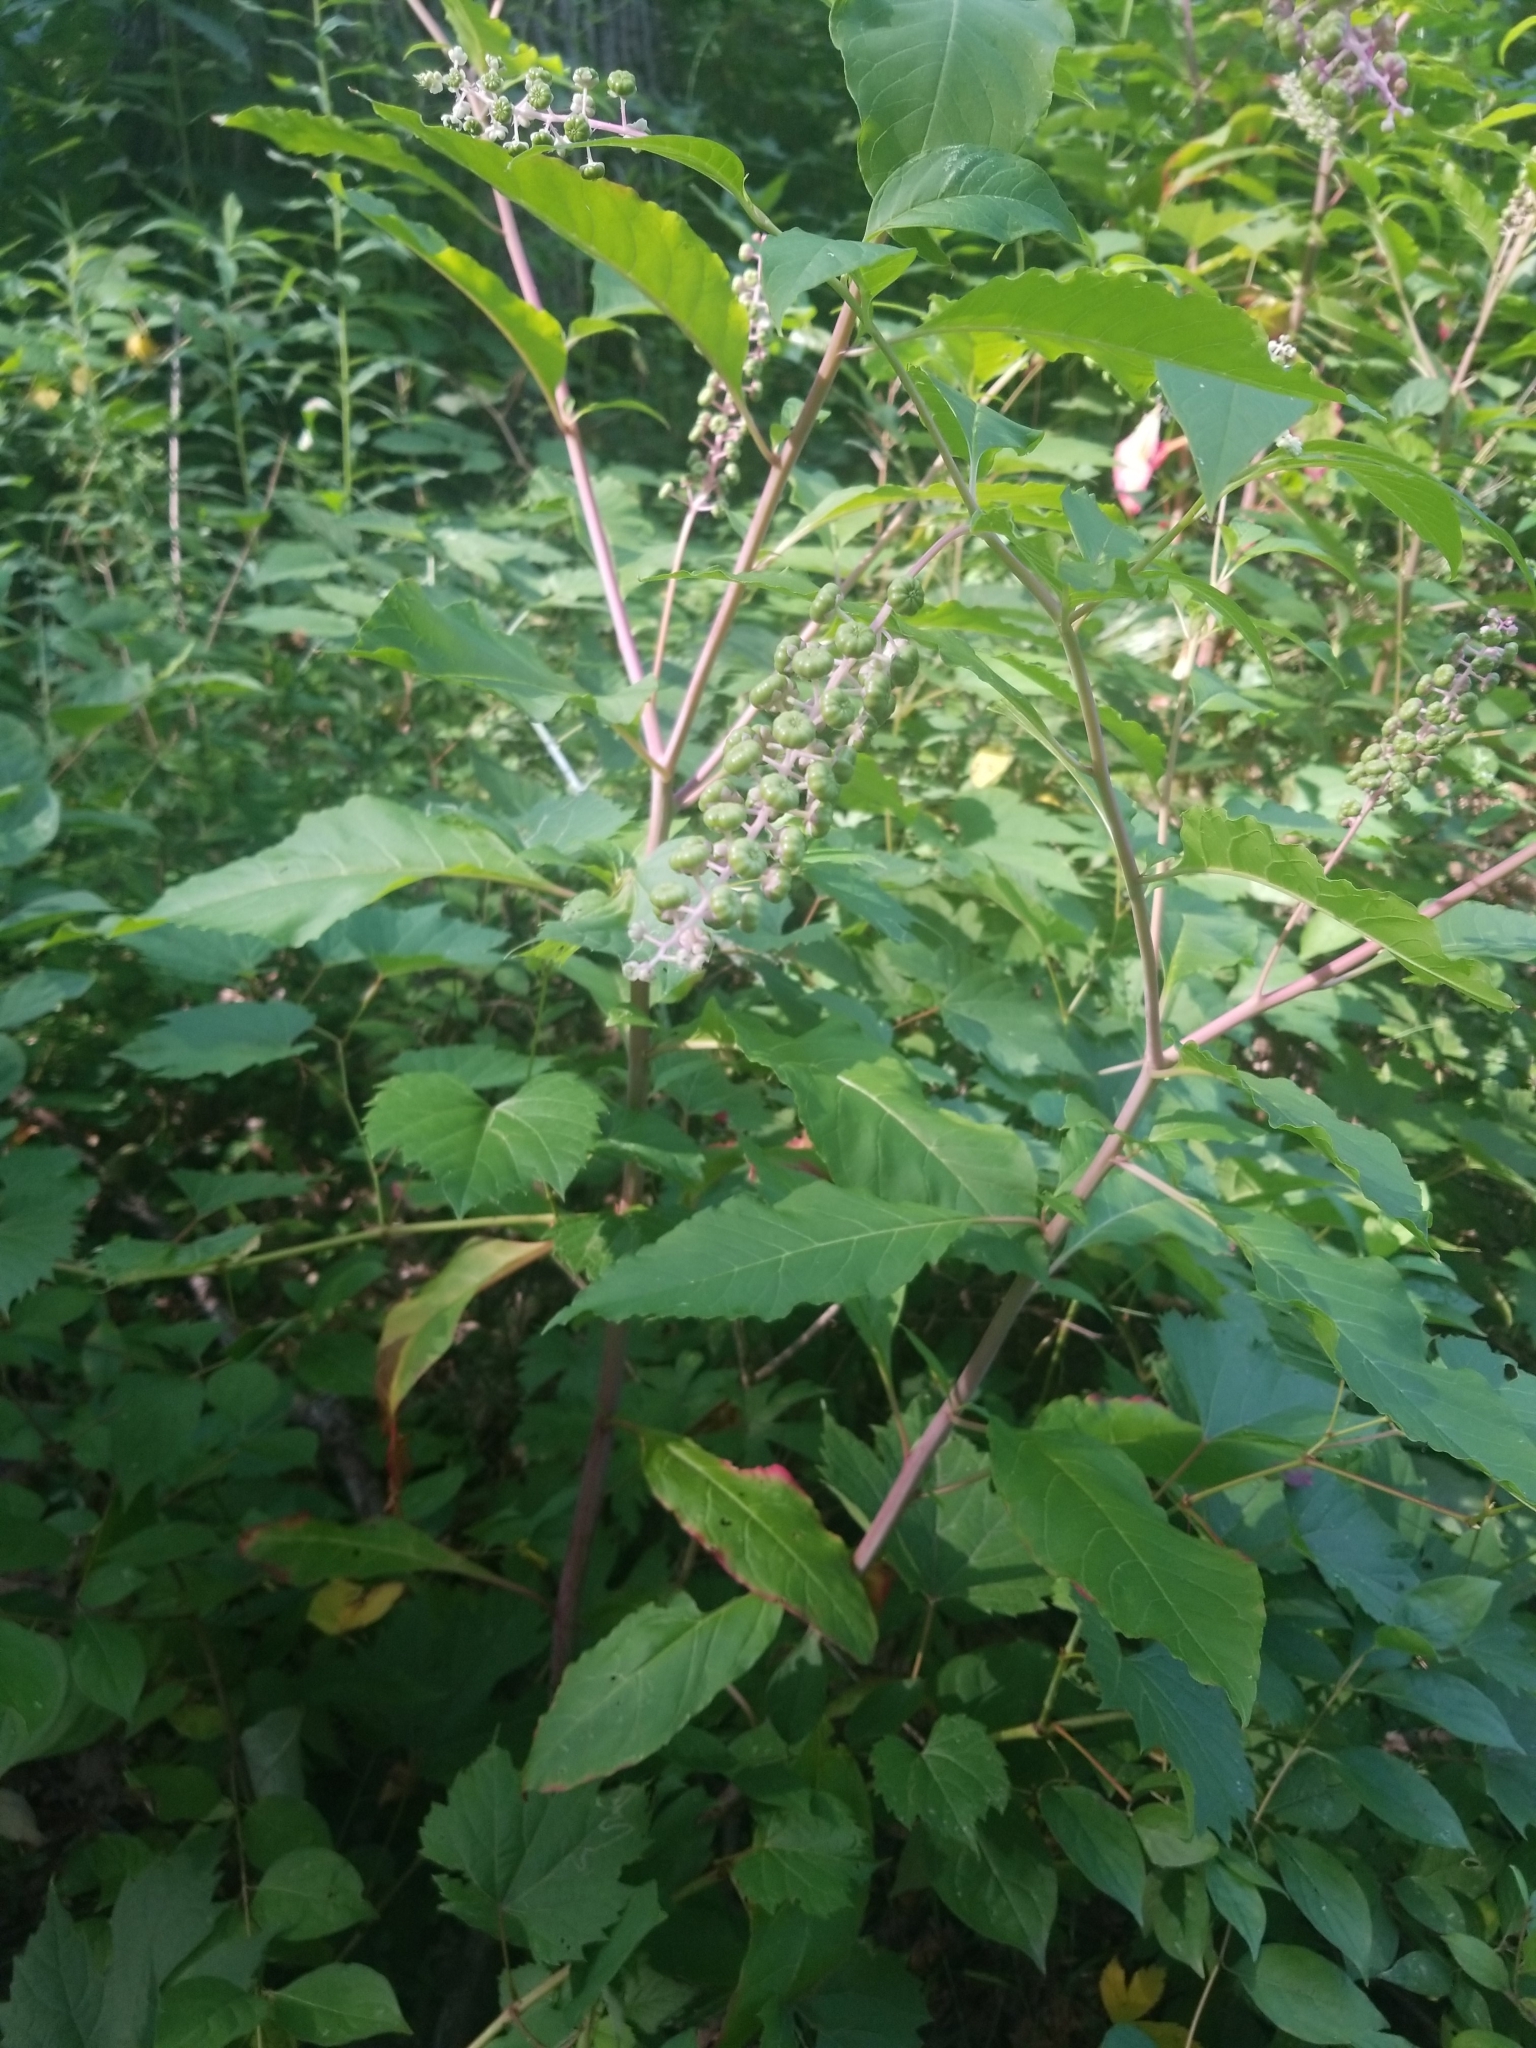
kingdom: Plantae
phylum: Tracheophyta
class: Magnoliopsida
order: Caryophyllales
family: Phytolaccaceae
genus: Phytolacca
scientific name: Phytolacca americana
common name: American pokeweed
